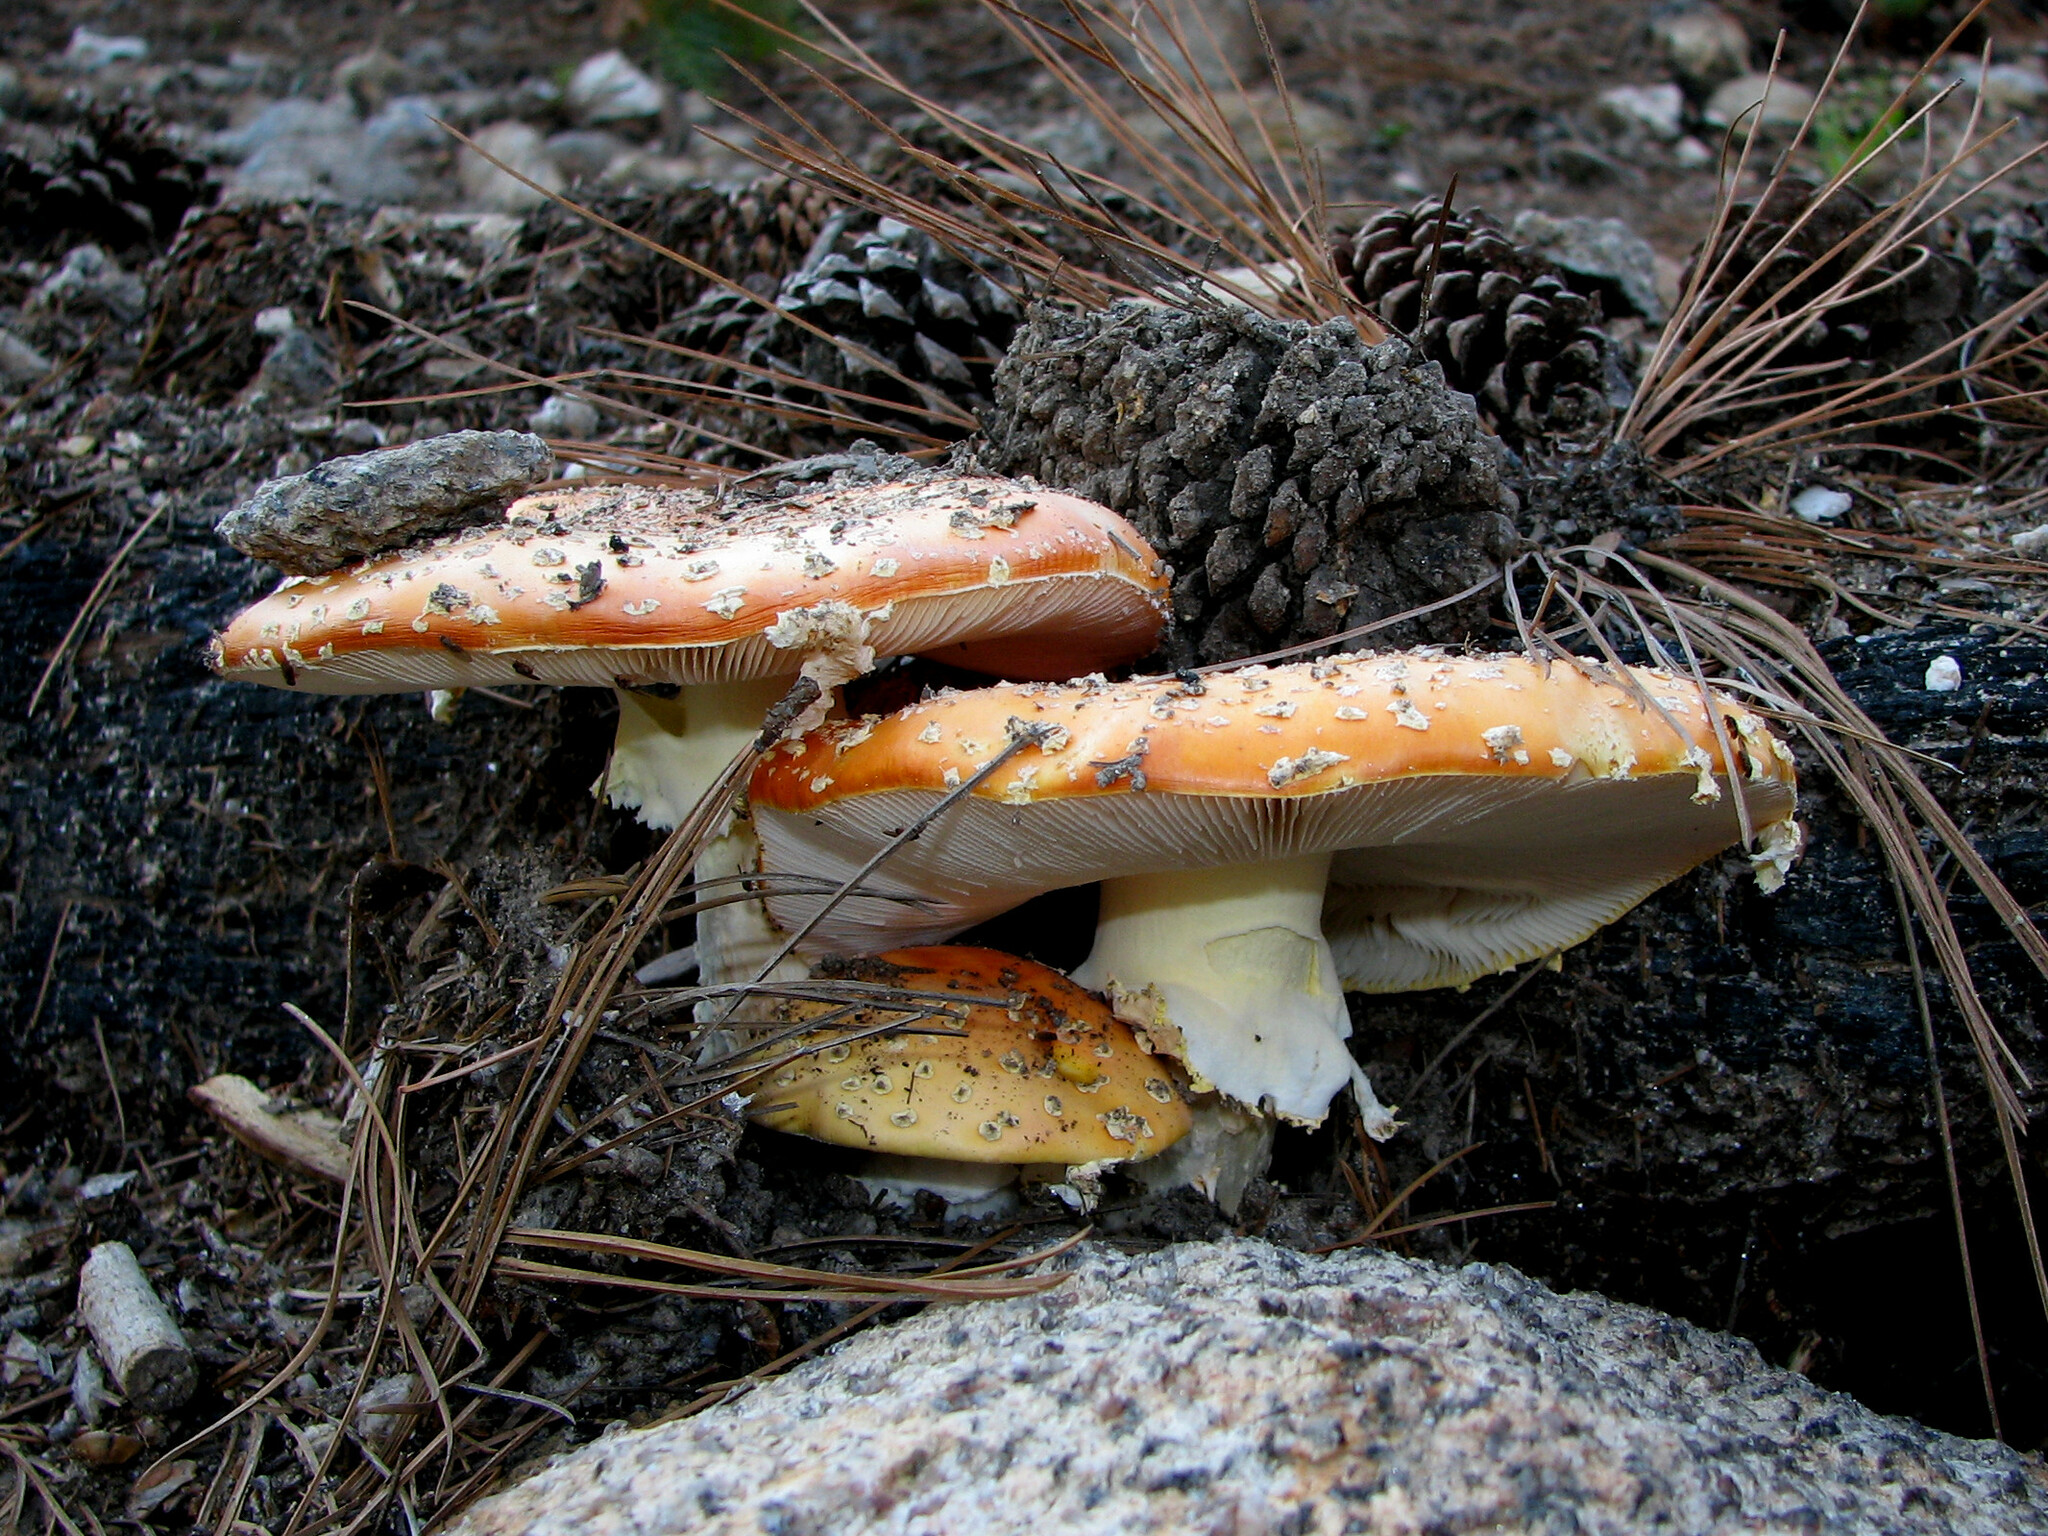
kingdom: Fungi
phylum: Basidiomycota
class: Agaricomycetes
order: Agaricales
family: Amanitaceae
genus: Amanita
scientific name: Amanita muscaria
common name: Fly agaric
